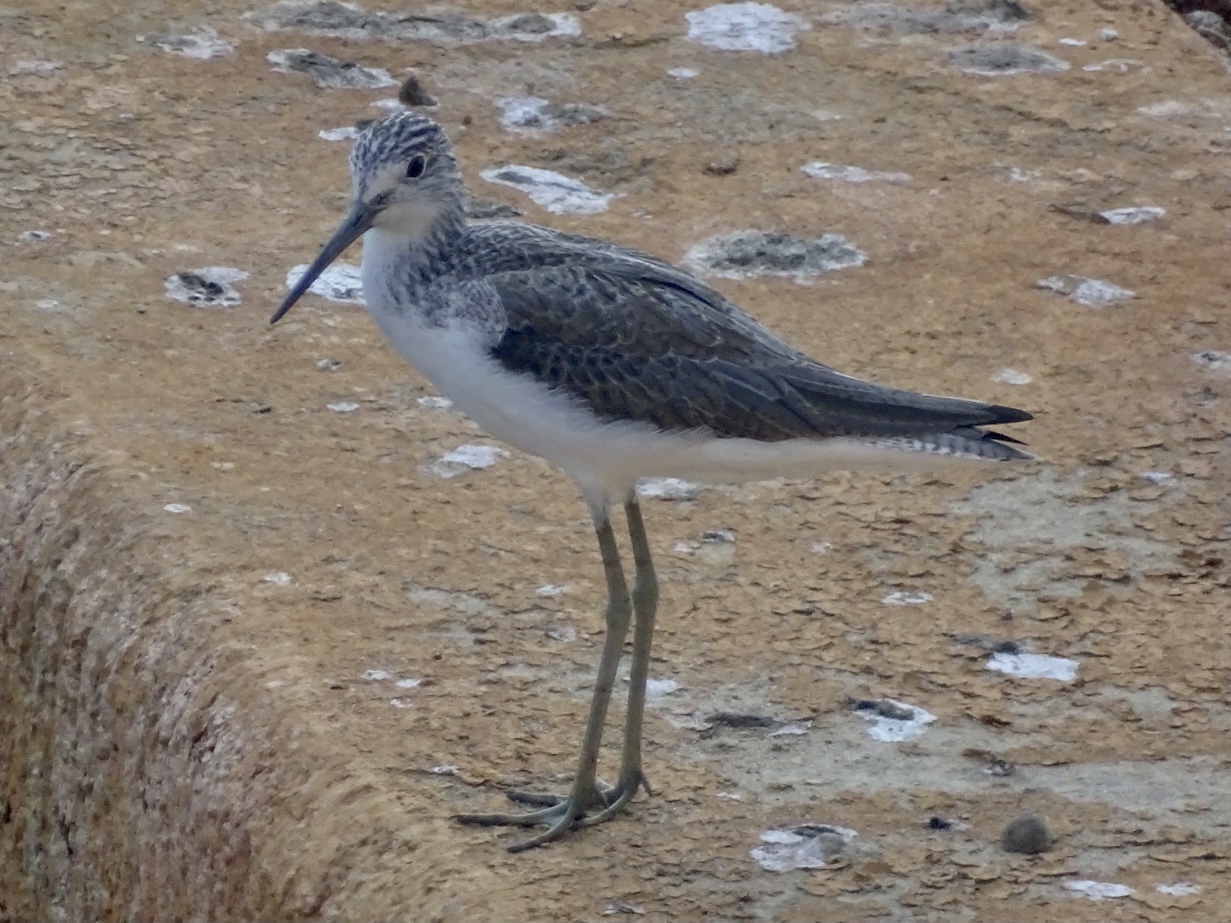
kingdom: Animalia
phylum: Chordata
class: Aves
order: Charadriiformes
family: Scolopacidae
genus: Tringa
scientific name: Tringa nebularia
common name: Common greenshank
